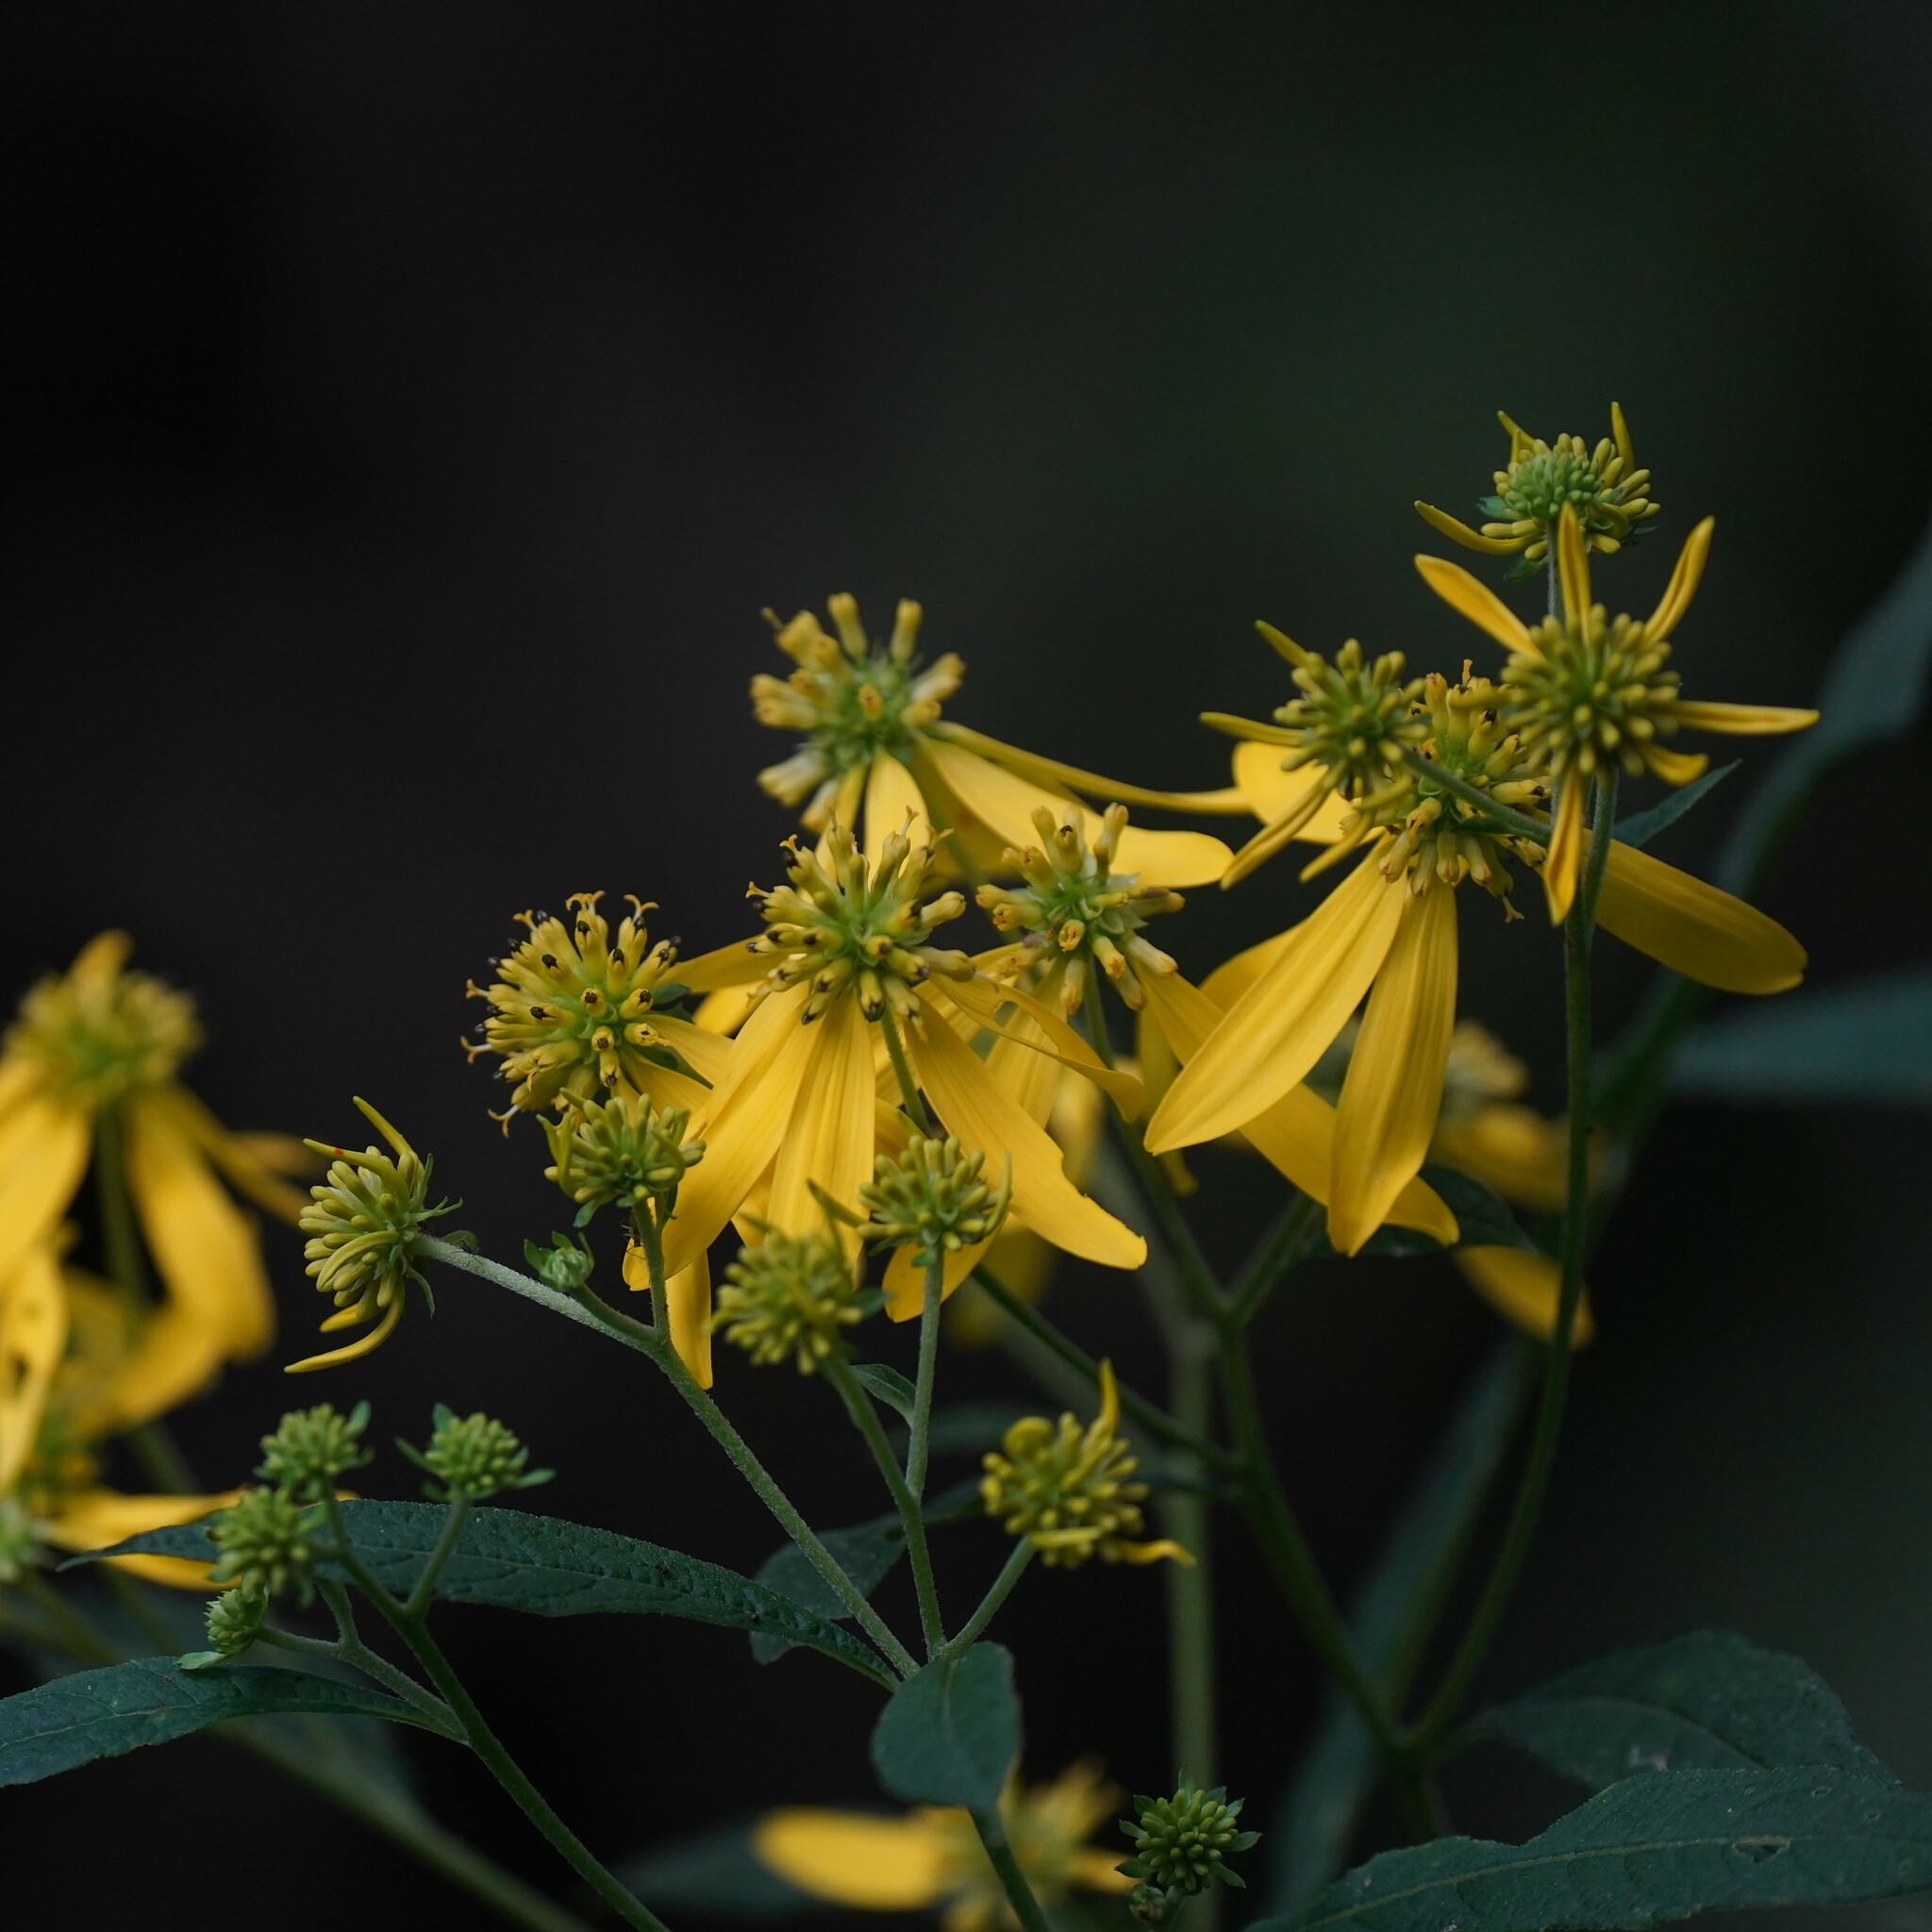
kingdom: Plantae
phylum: Tracheophyta
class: Magnoliopsida
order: Asterales
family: Asteraceae
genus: Verbesina
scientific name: Verbesina alternifolia
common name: Wingstem
